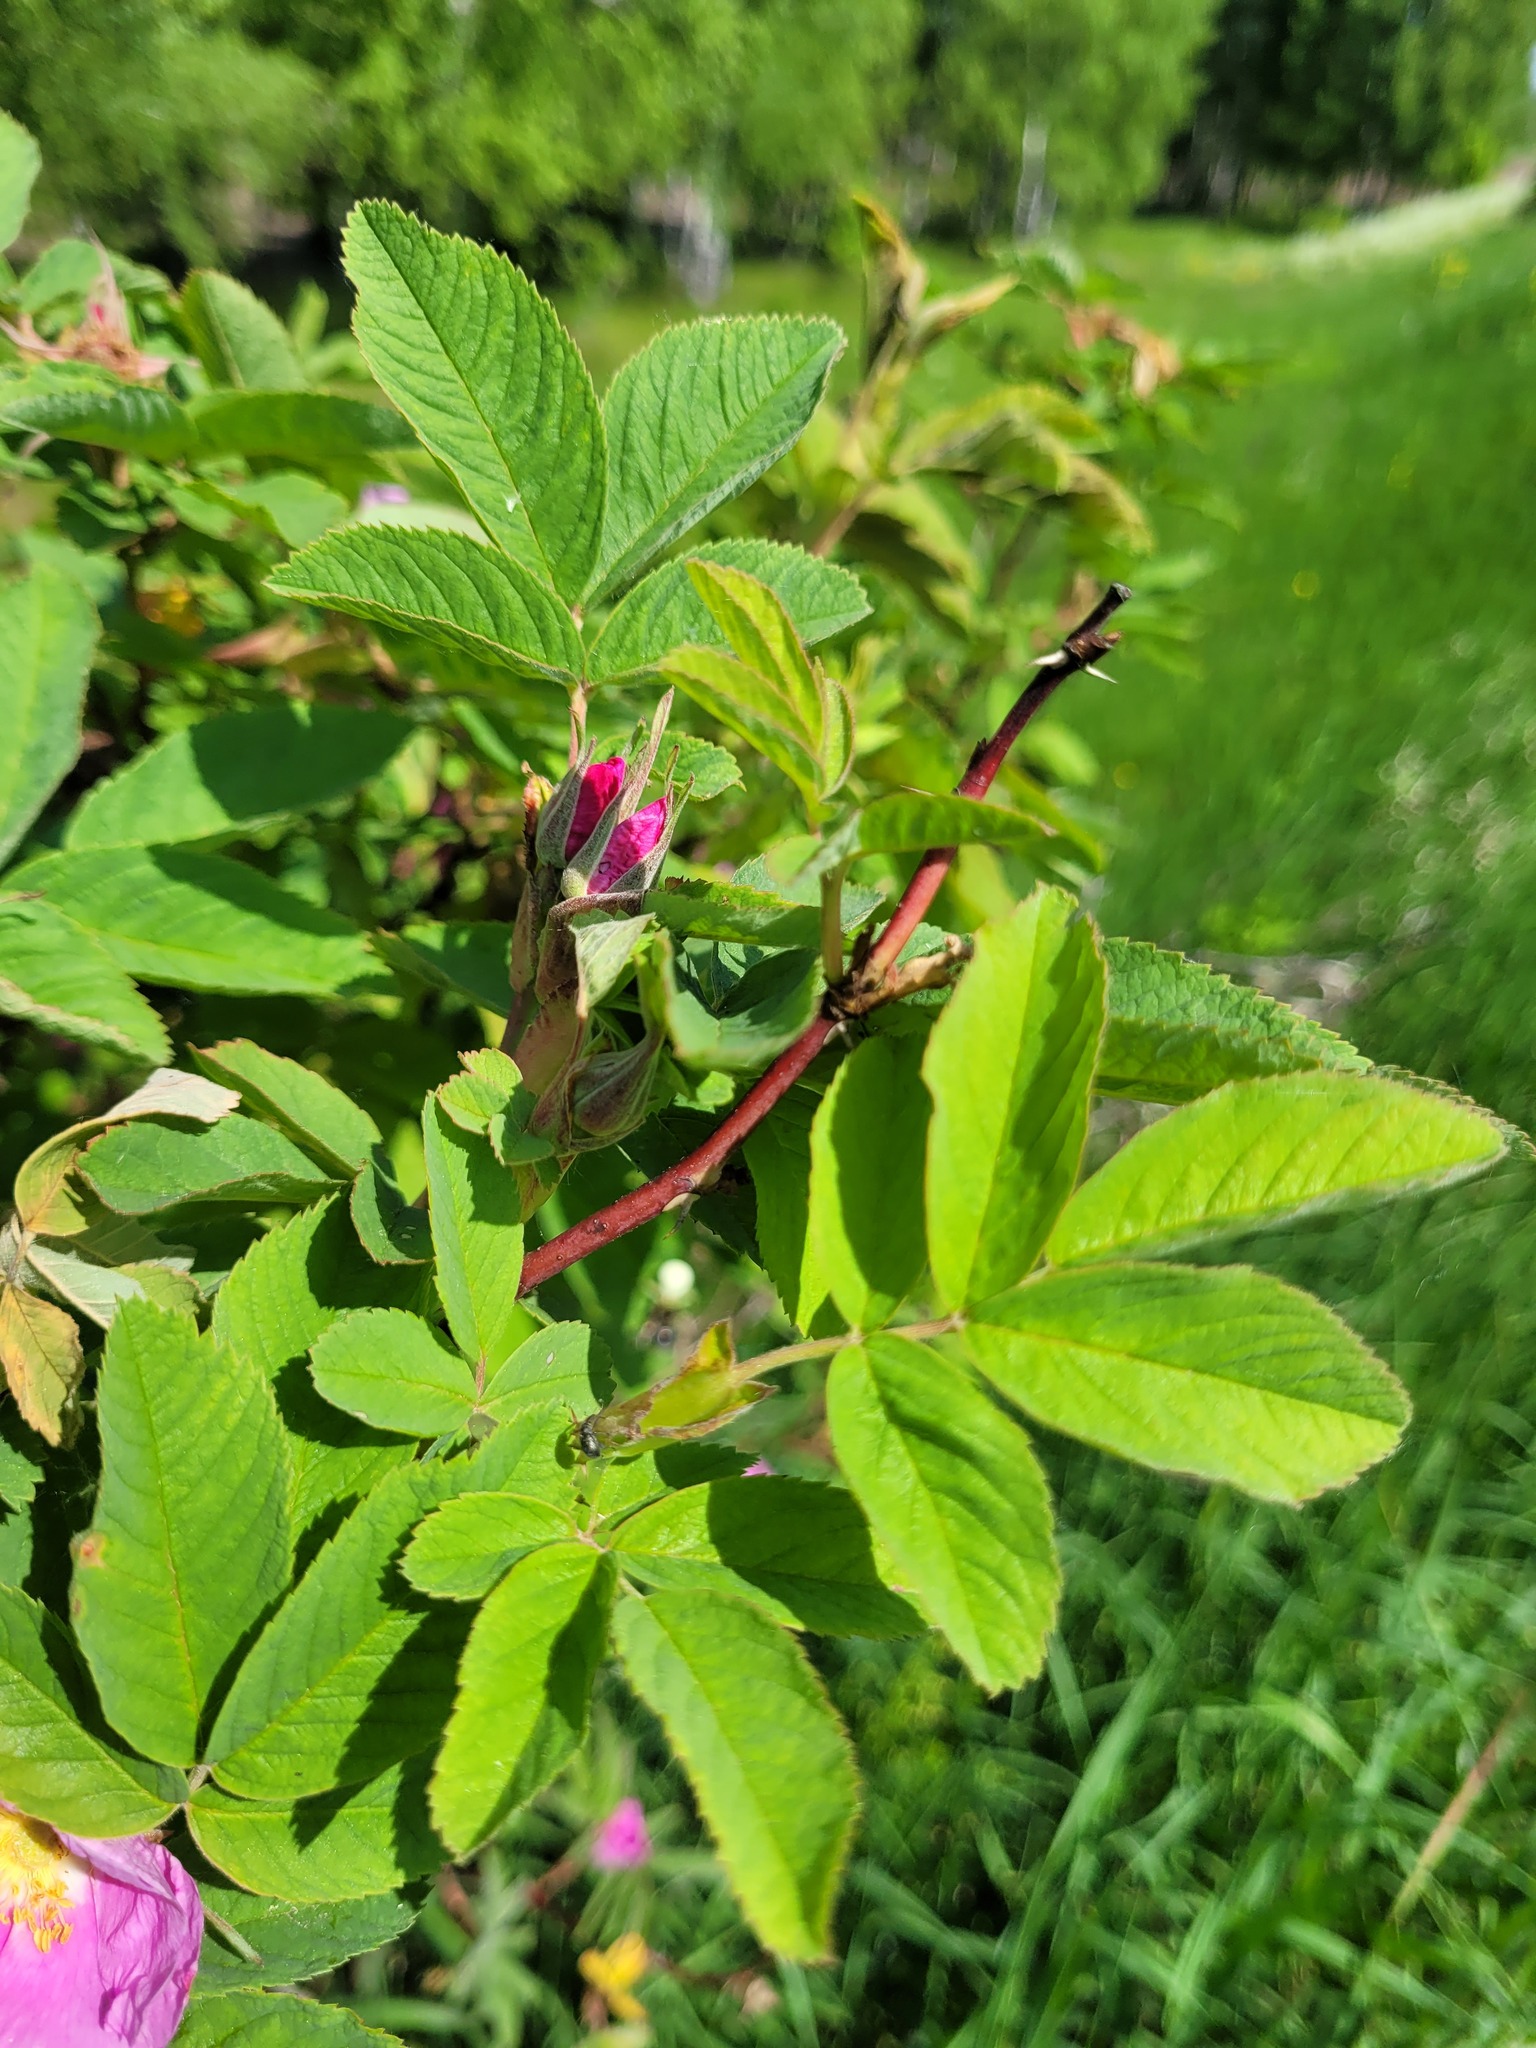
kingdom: Plantae
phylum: Tracheophyta
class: Magnoliopsida
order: Rosales
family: Rosaceae
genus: Rosa
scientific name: Rosa majalis
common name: Cinnamon rose
